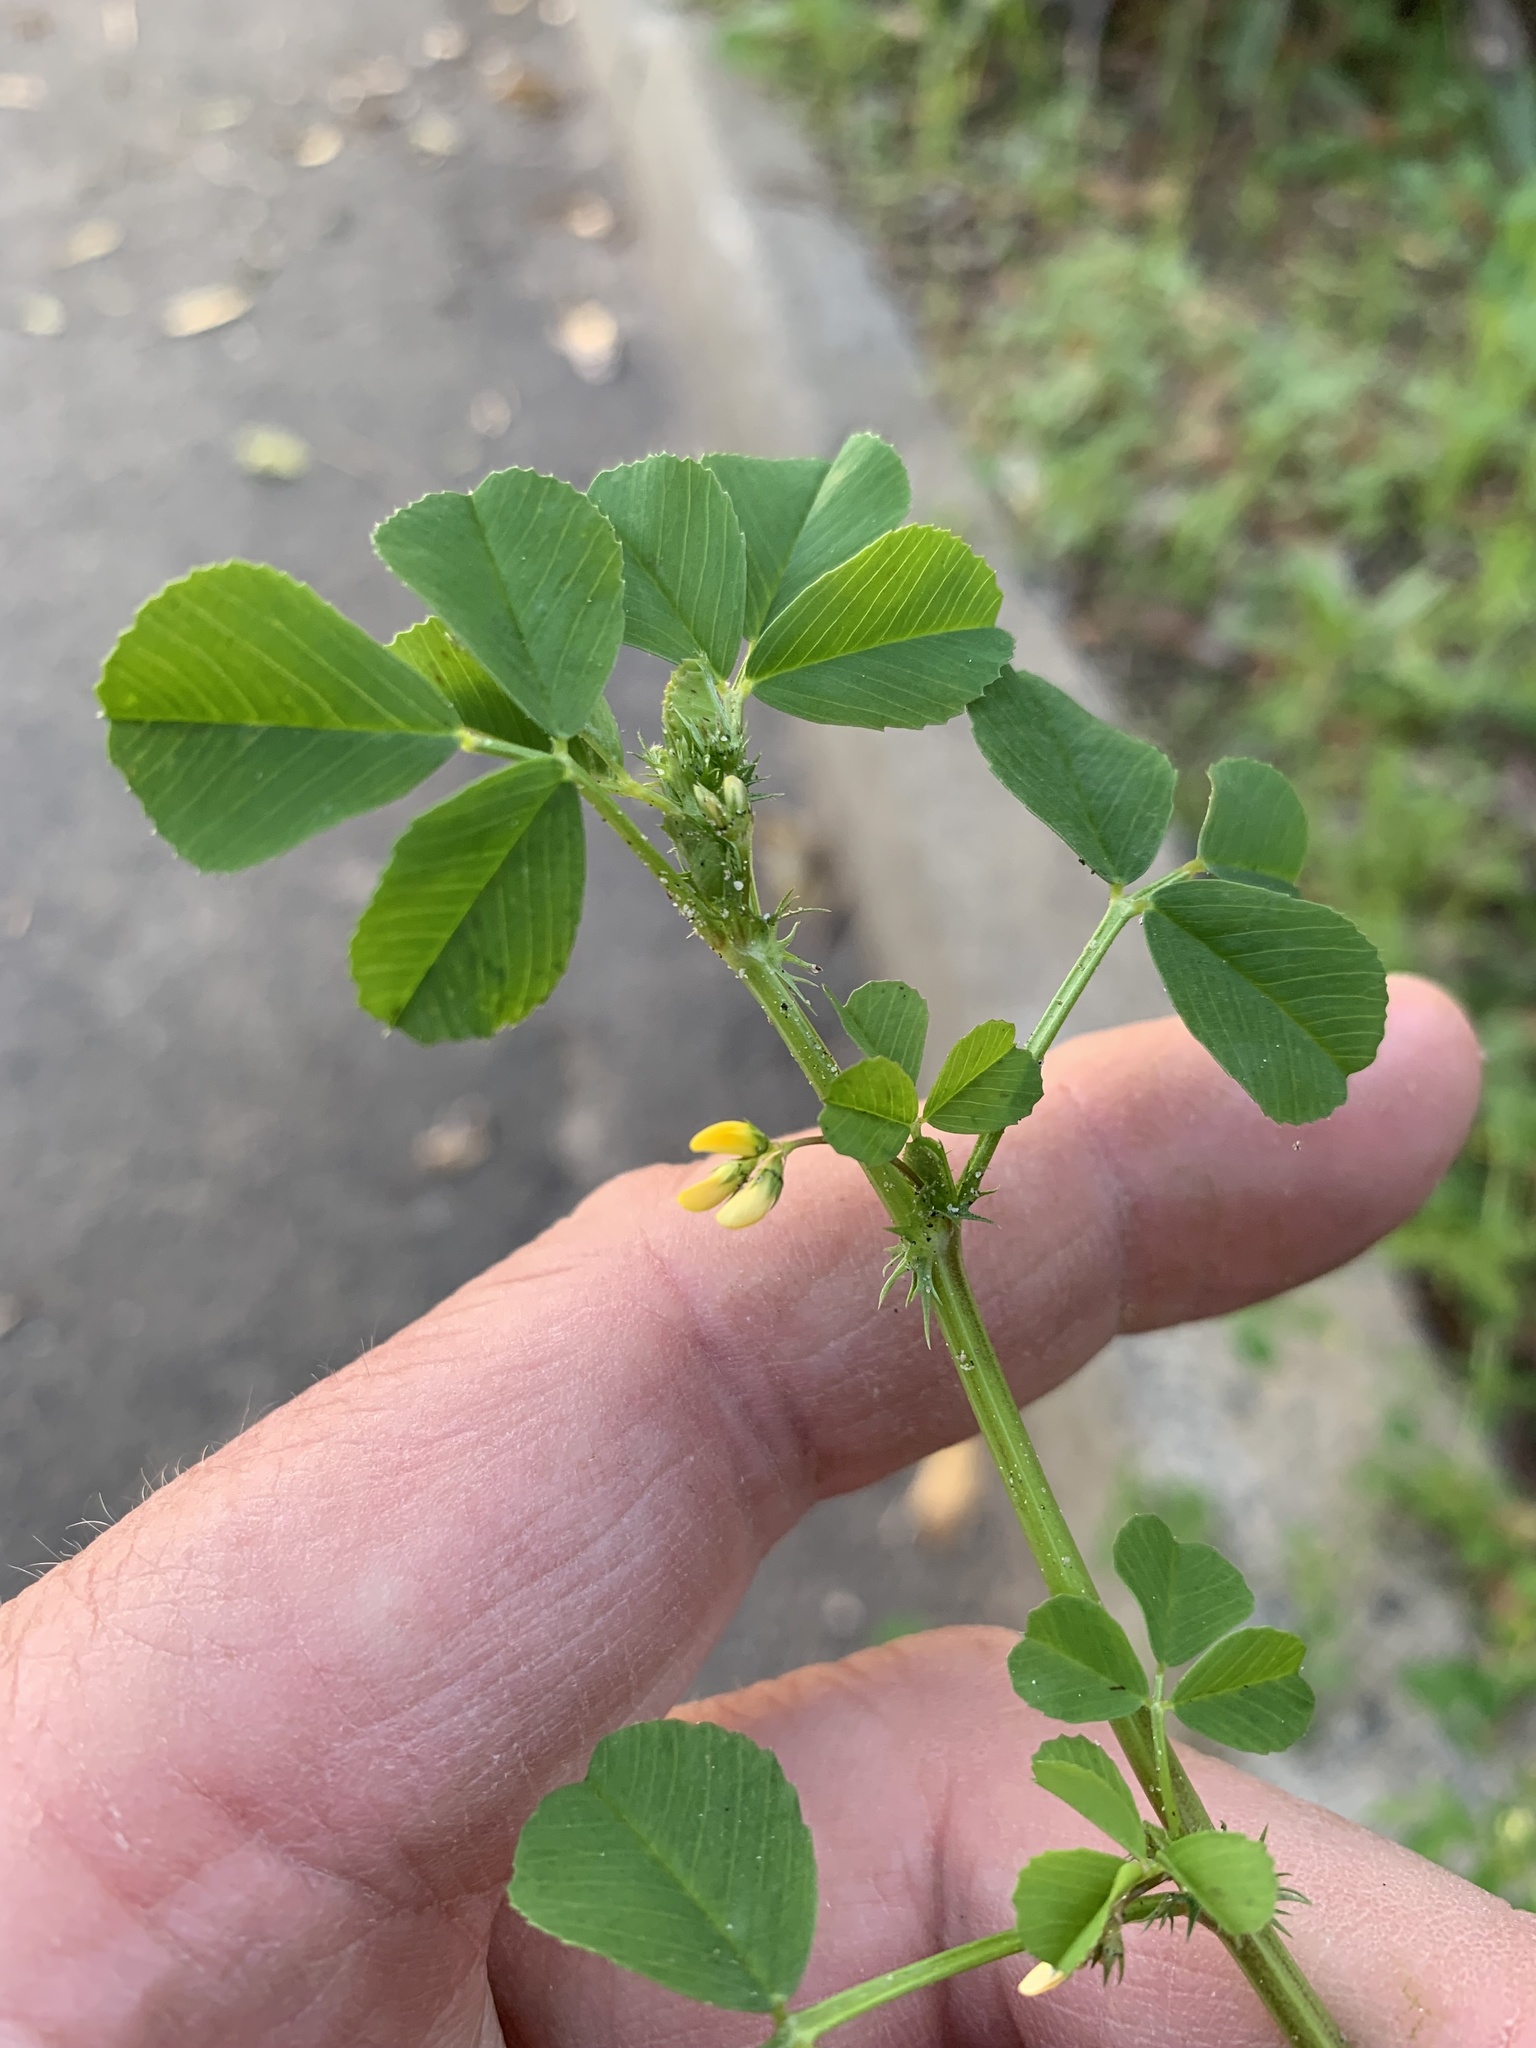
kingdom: Plantae
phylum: Tracheophyta
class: Magnoliopsida
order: Fabales
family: Fabaceae
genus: Medicago
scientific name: Medicago polymorpha
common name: Burclover
